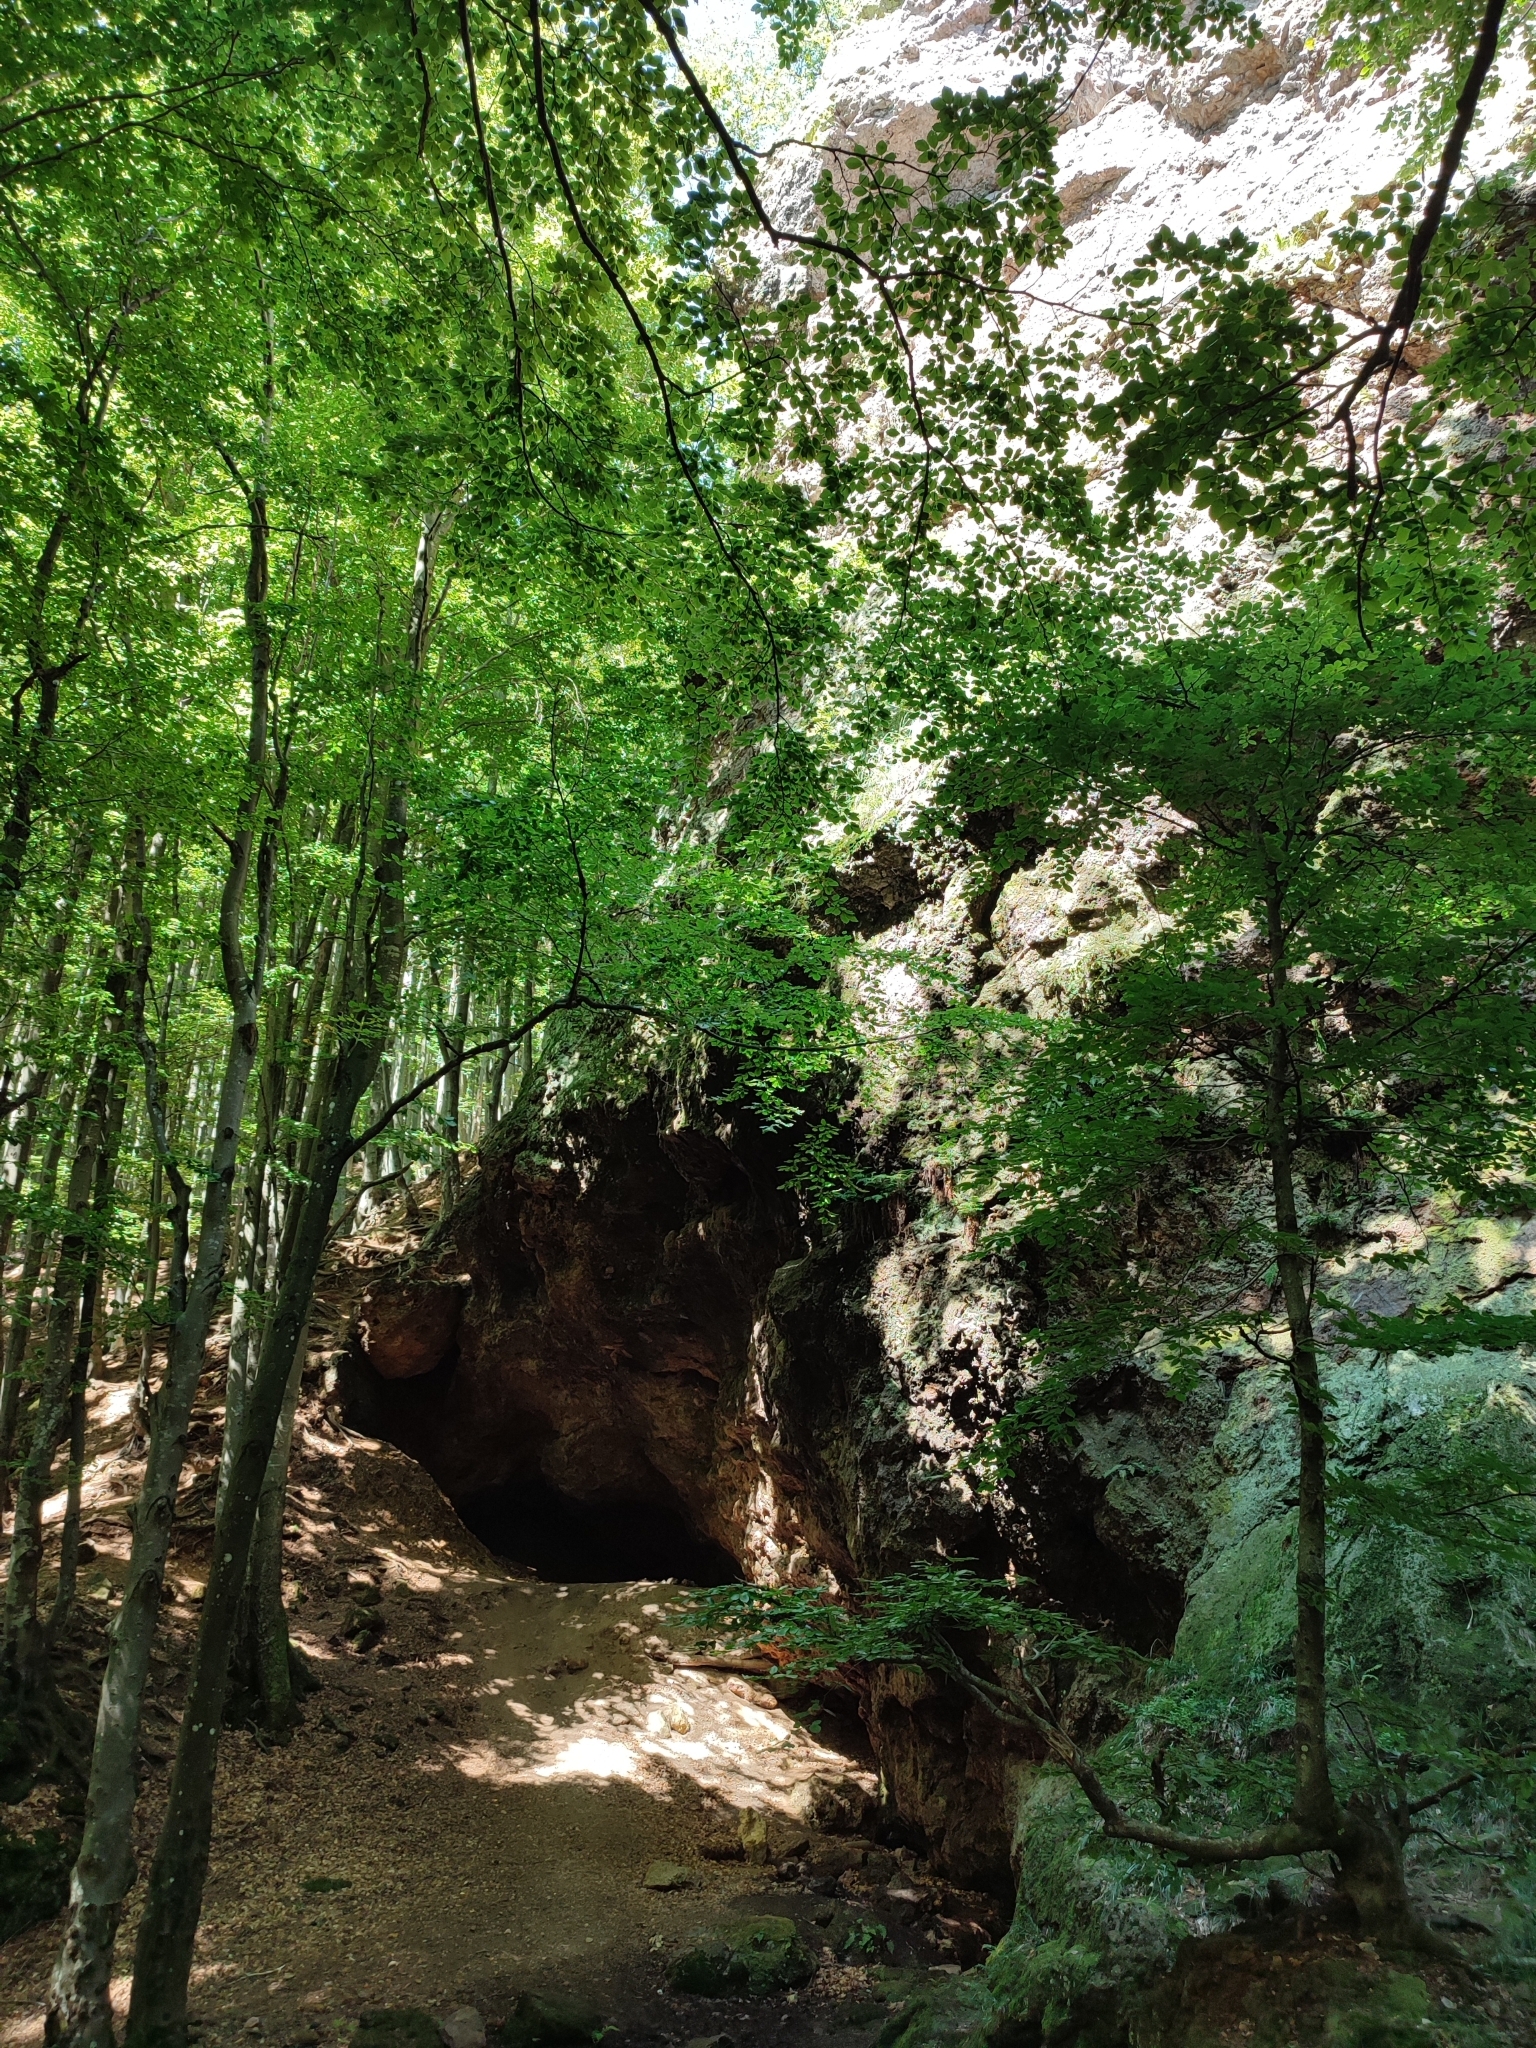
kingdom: Plantae
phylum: Tracheophyta
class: Magnoliopsida
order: Fagales
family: Fagaceae
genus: Fagus
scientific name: Fagus sylvatica
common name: Beech
